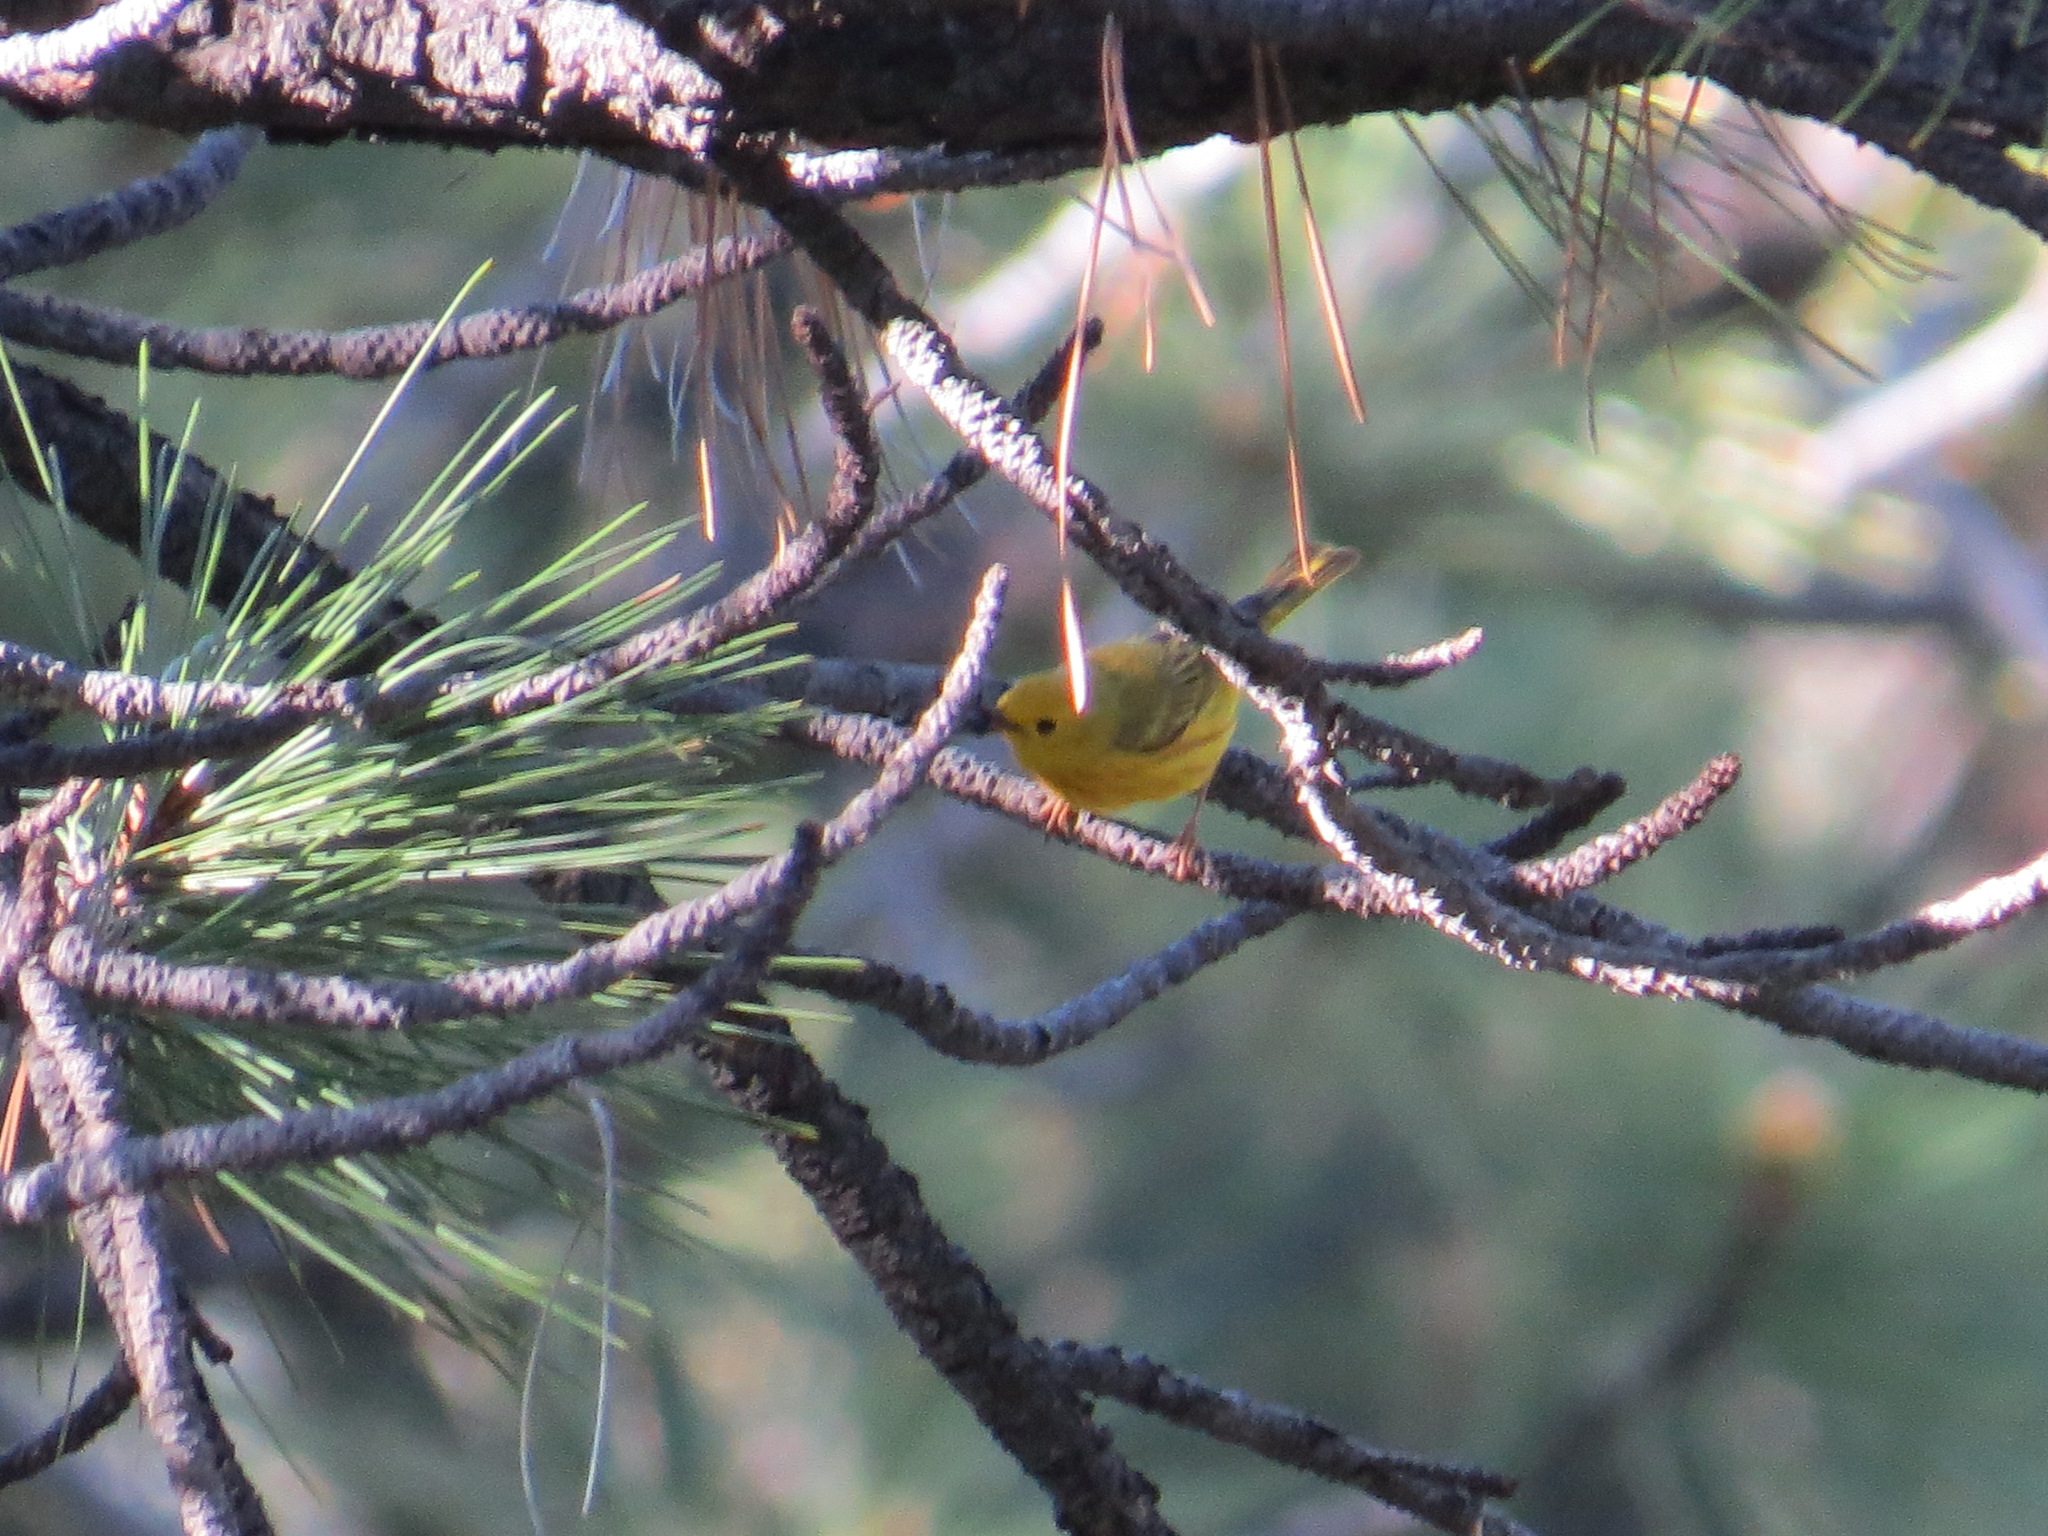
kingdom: Animalia
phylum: Chordata
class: Aves
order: Passeriformes
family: Parulidae
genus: Setophaga
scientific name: Setophaga petechia
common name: Yellow warbler
